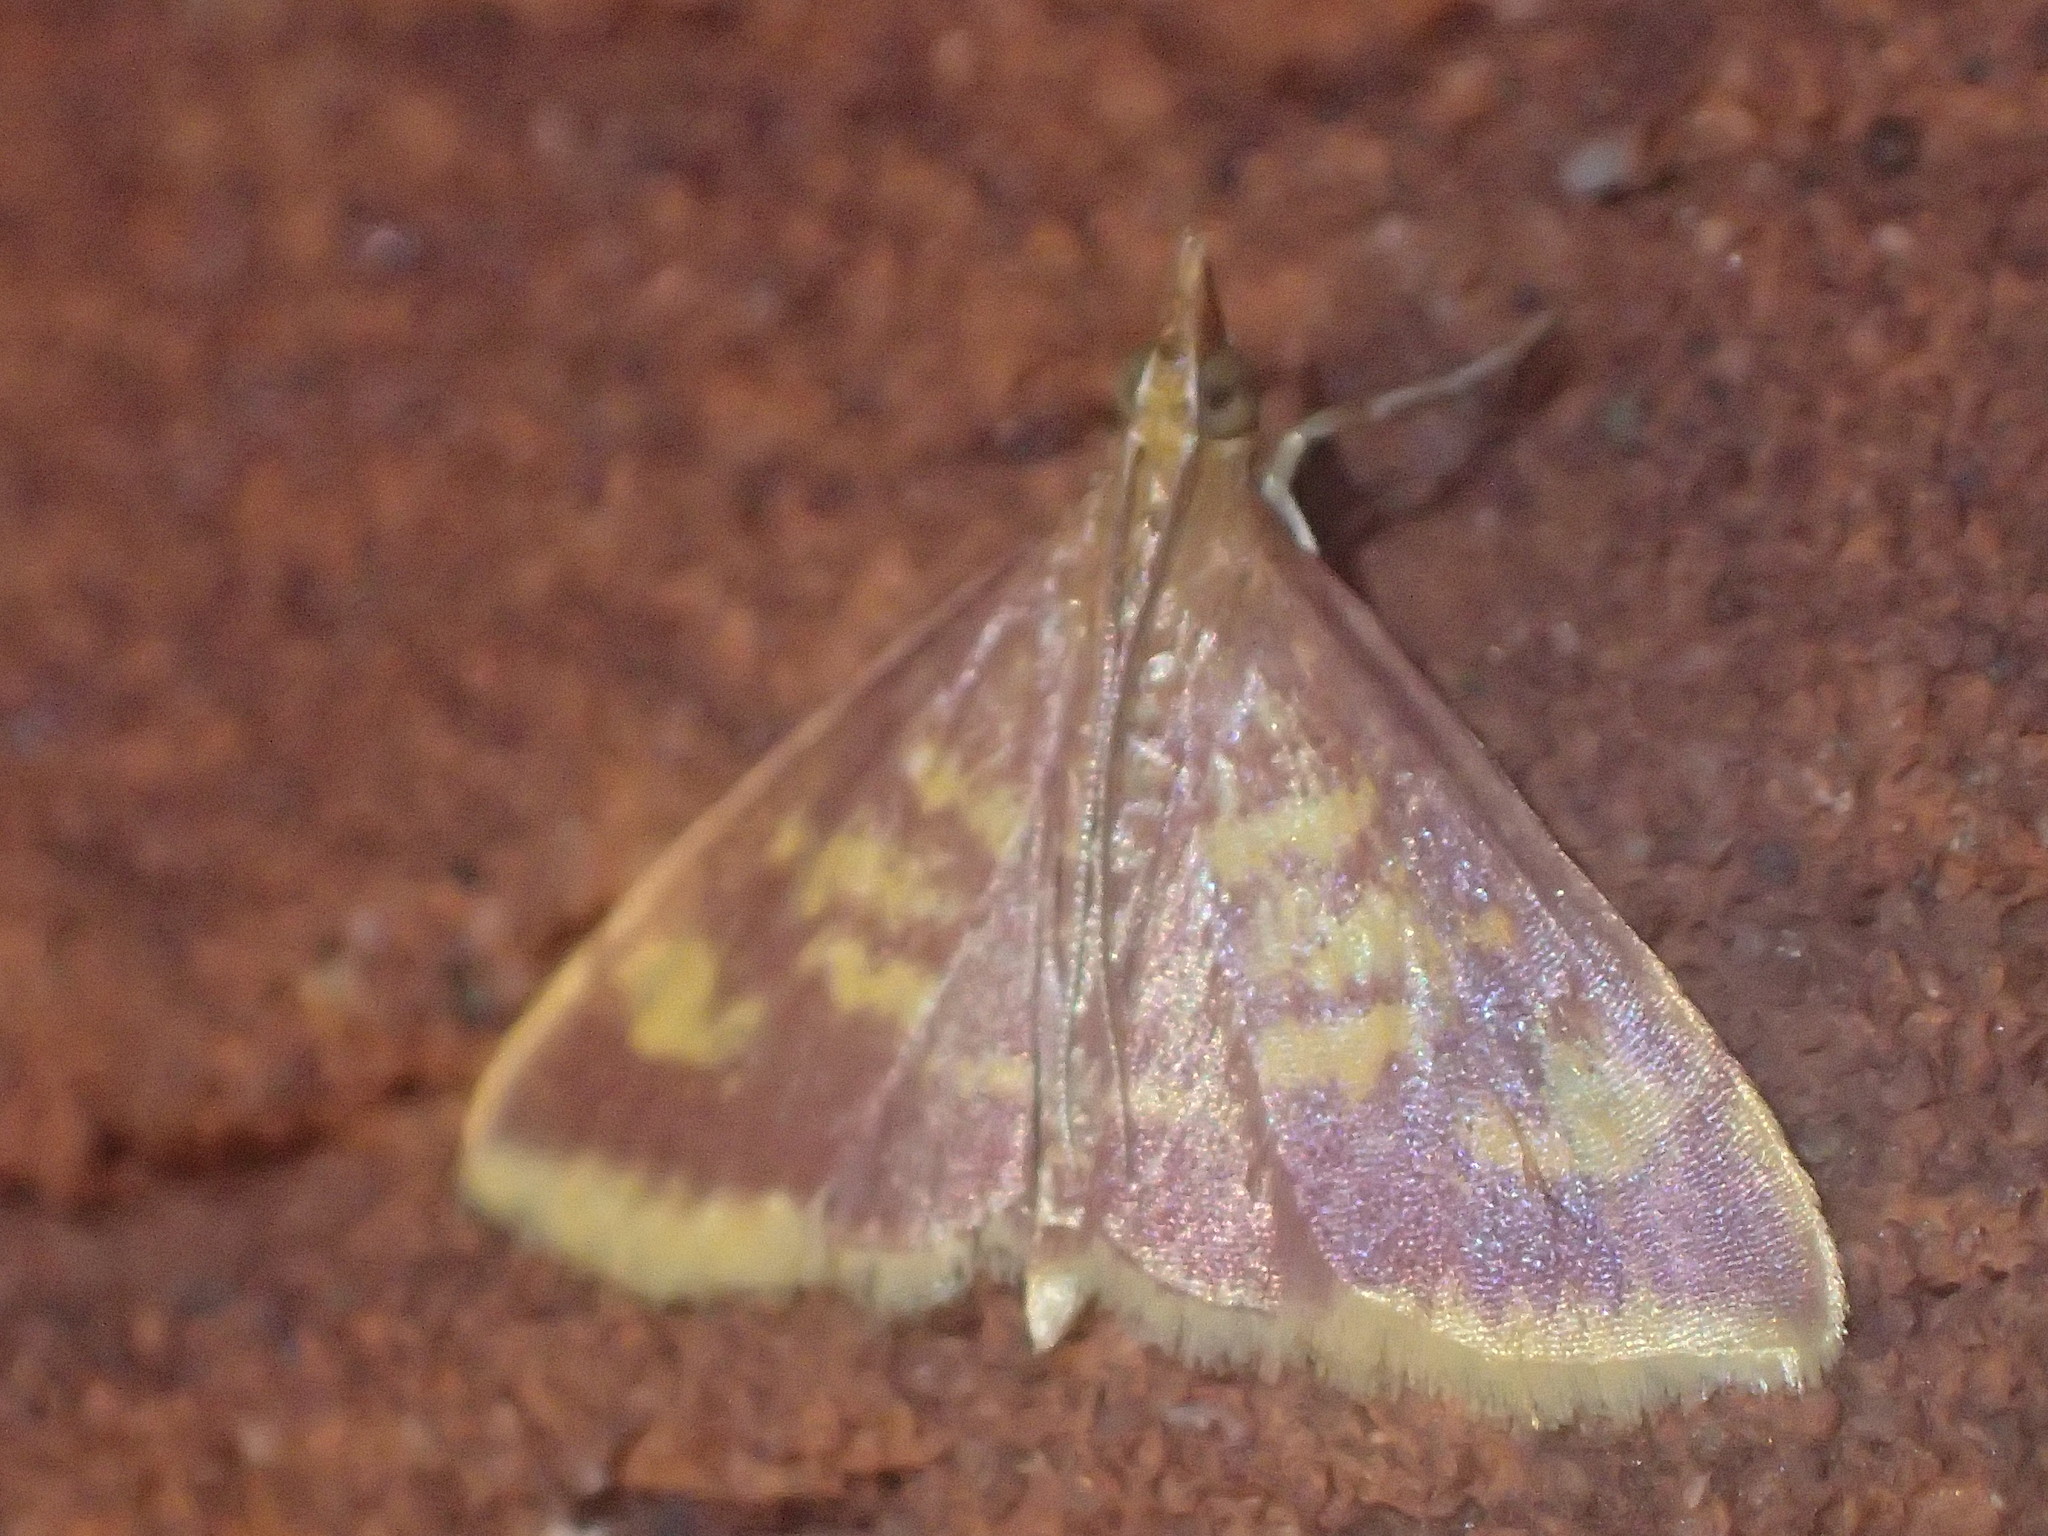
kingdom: Animalia
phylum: Arthropoda
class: Insecta
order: Lepidoptera
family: Crambidae
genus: Pyrausta
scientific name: Pyrausta acrionalis
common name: Mint-loving pyrausta moth
